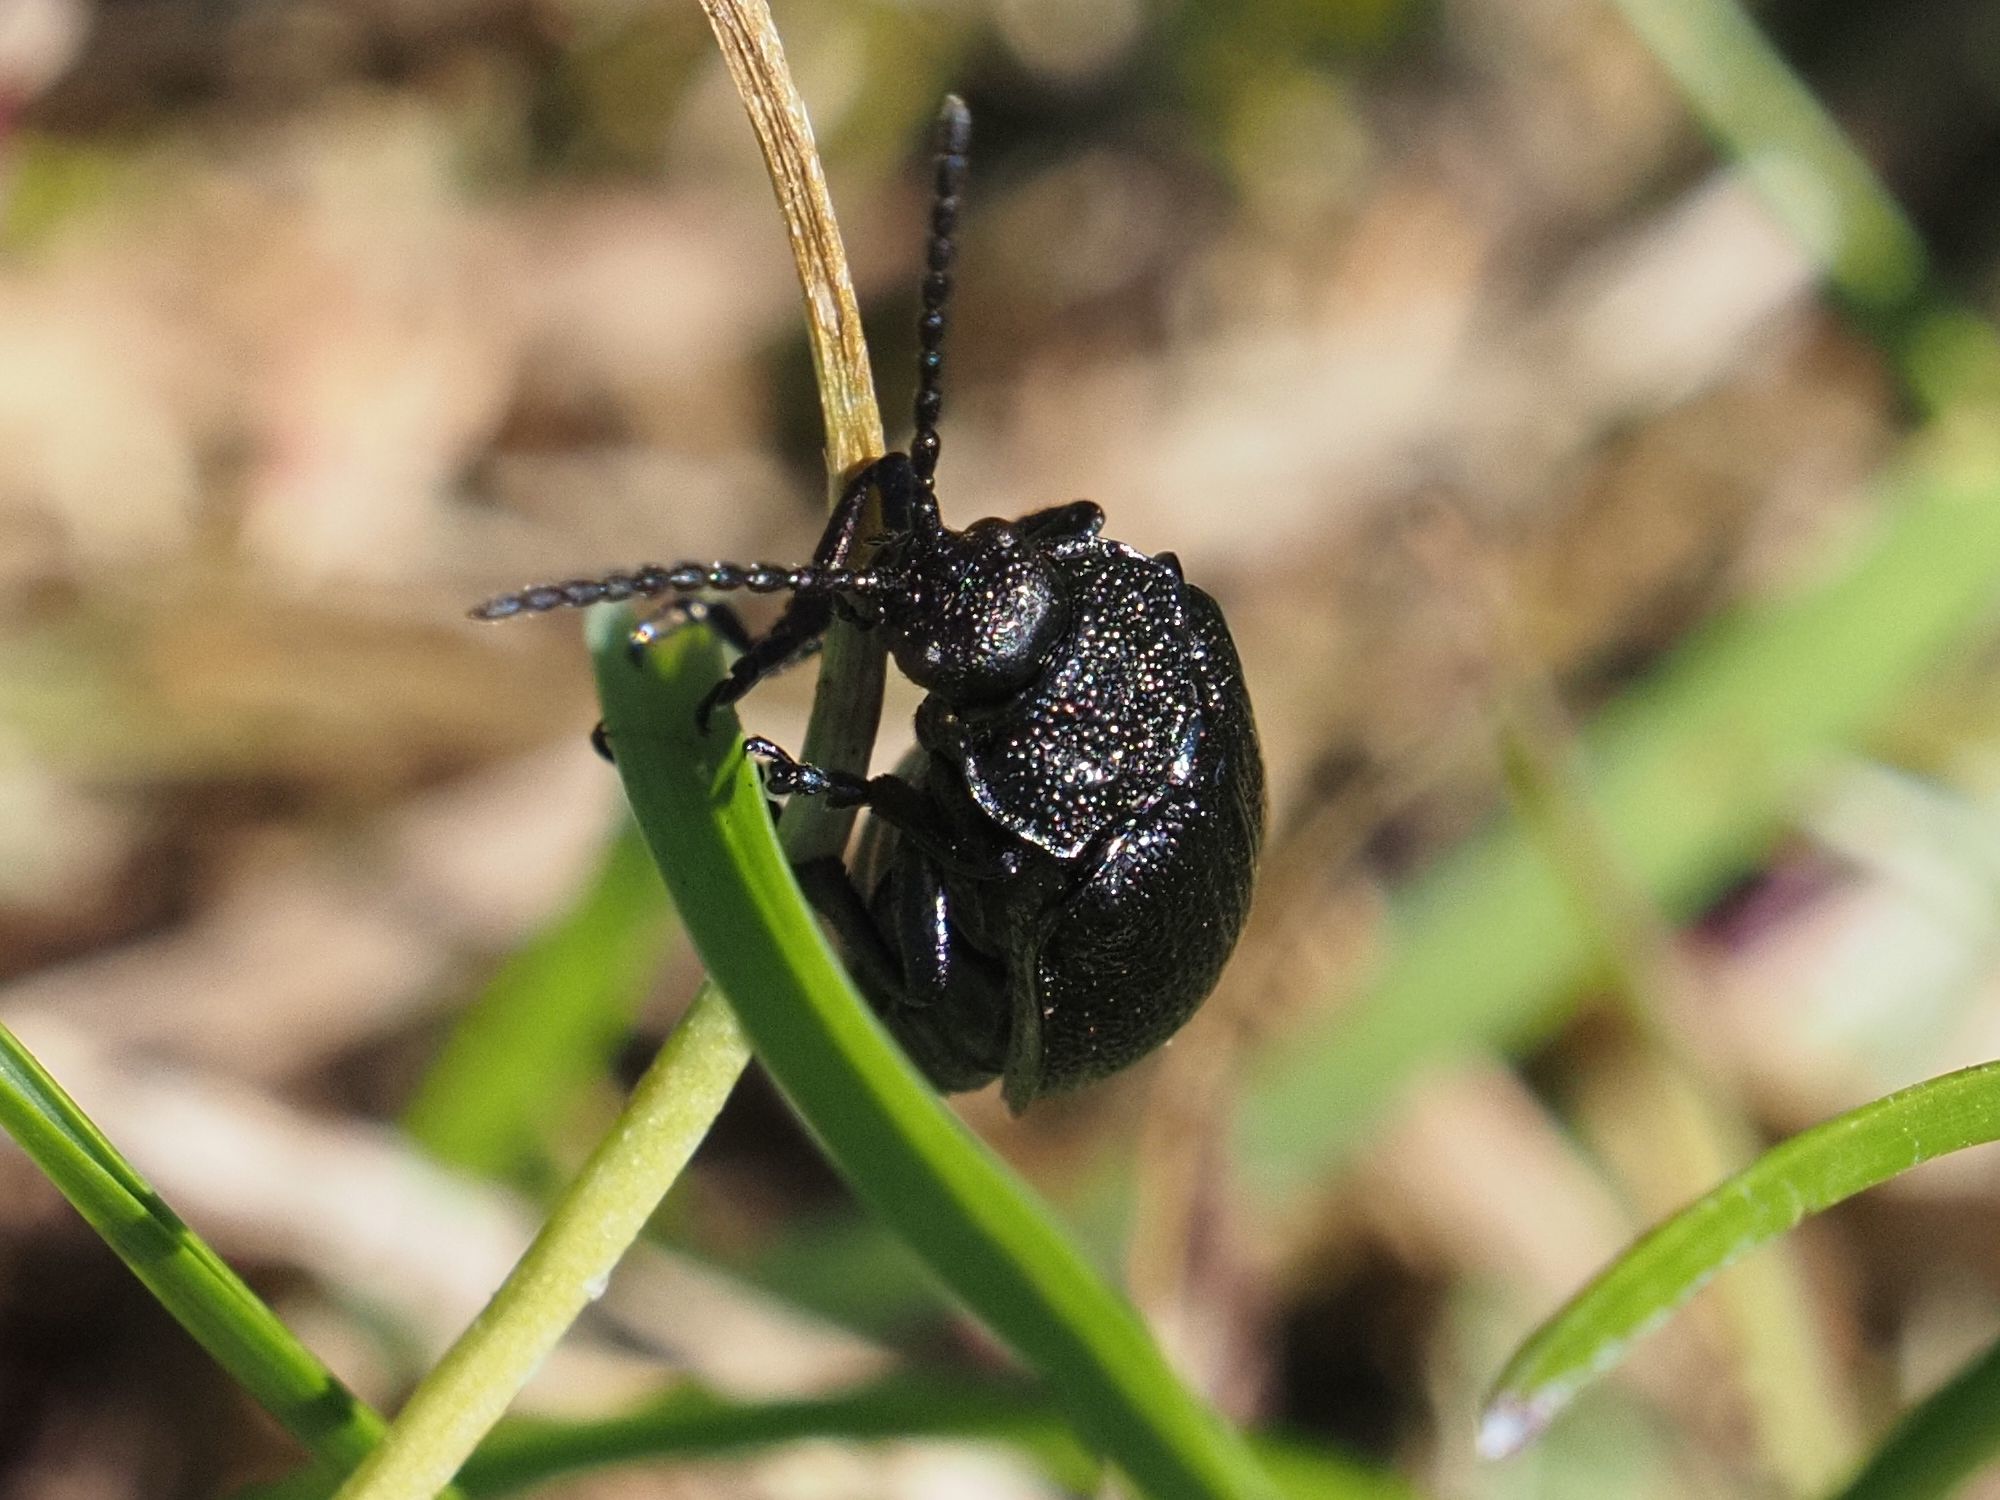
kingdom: Animalia
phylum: Arthropoda
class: Insecta
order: Coleoptera
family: Chrysomelidae
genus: Galeruca
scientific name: Galeruca tanaceti
